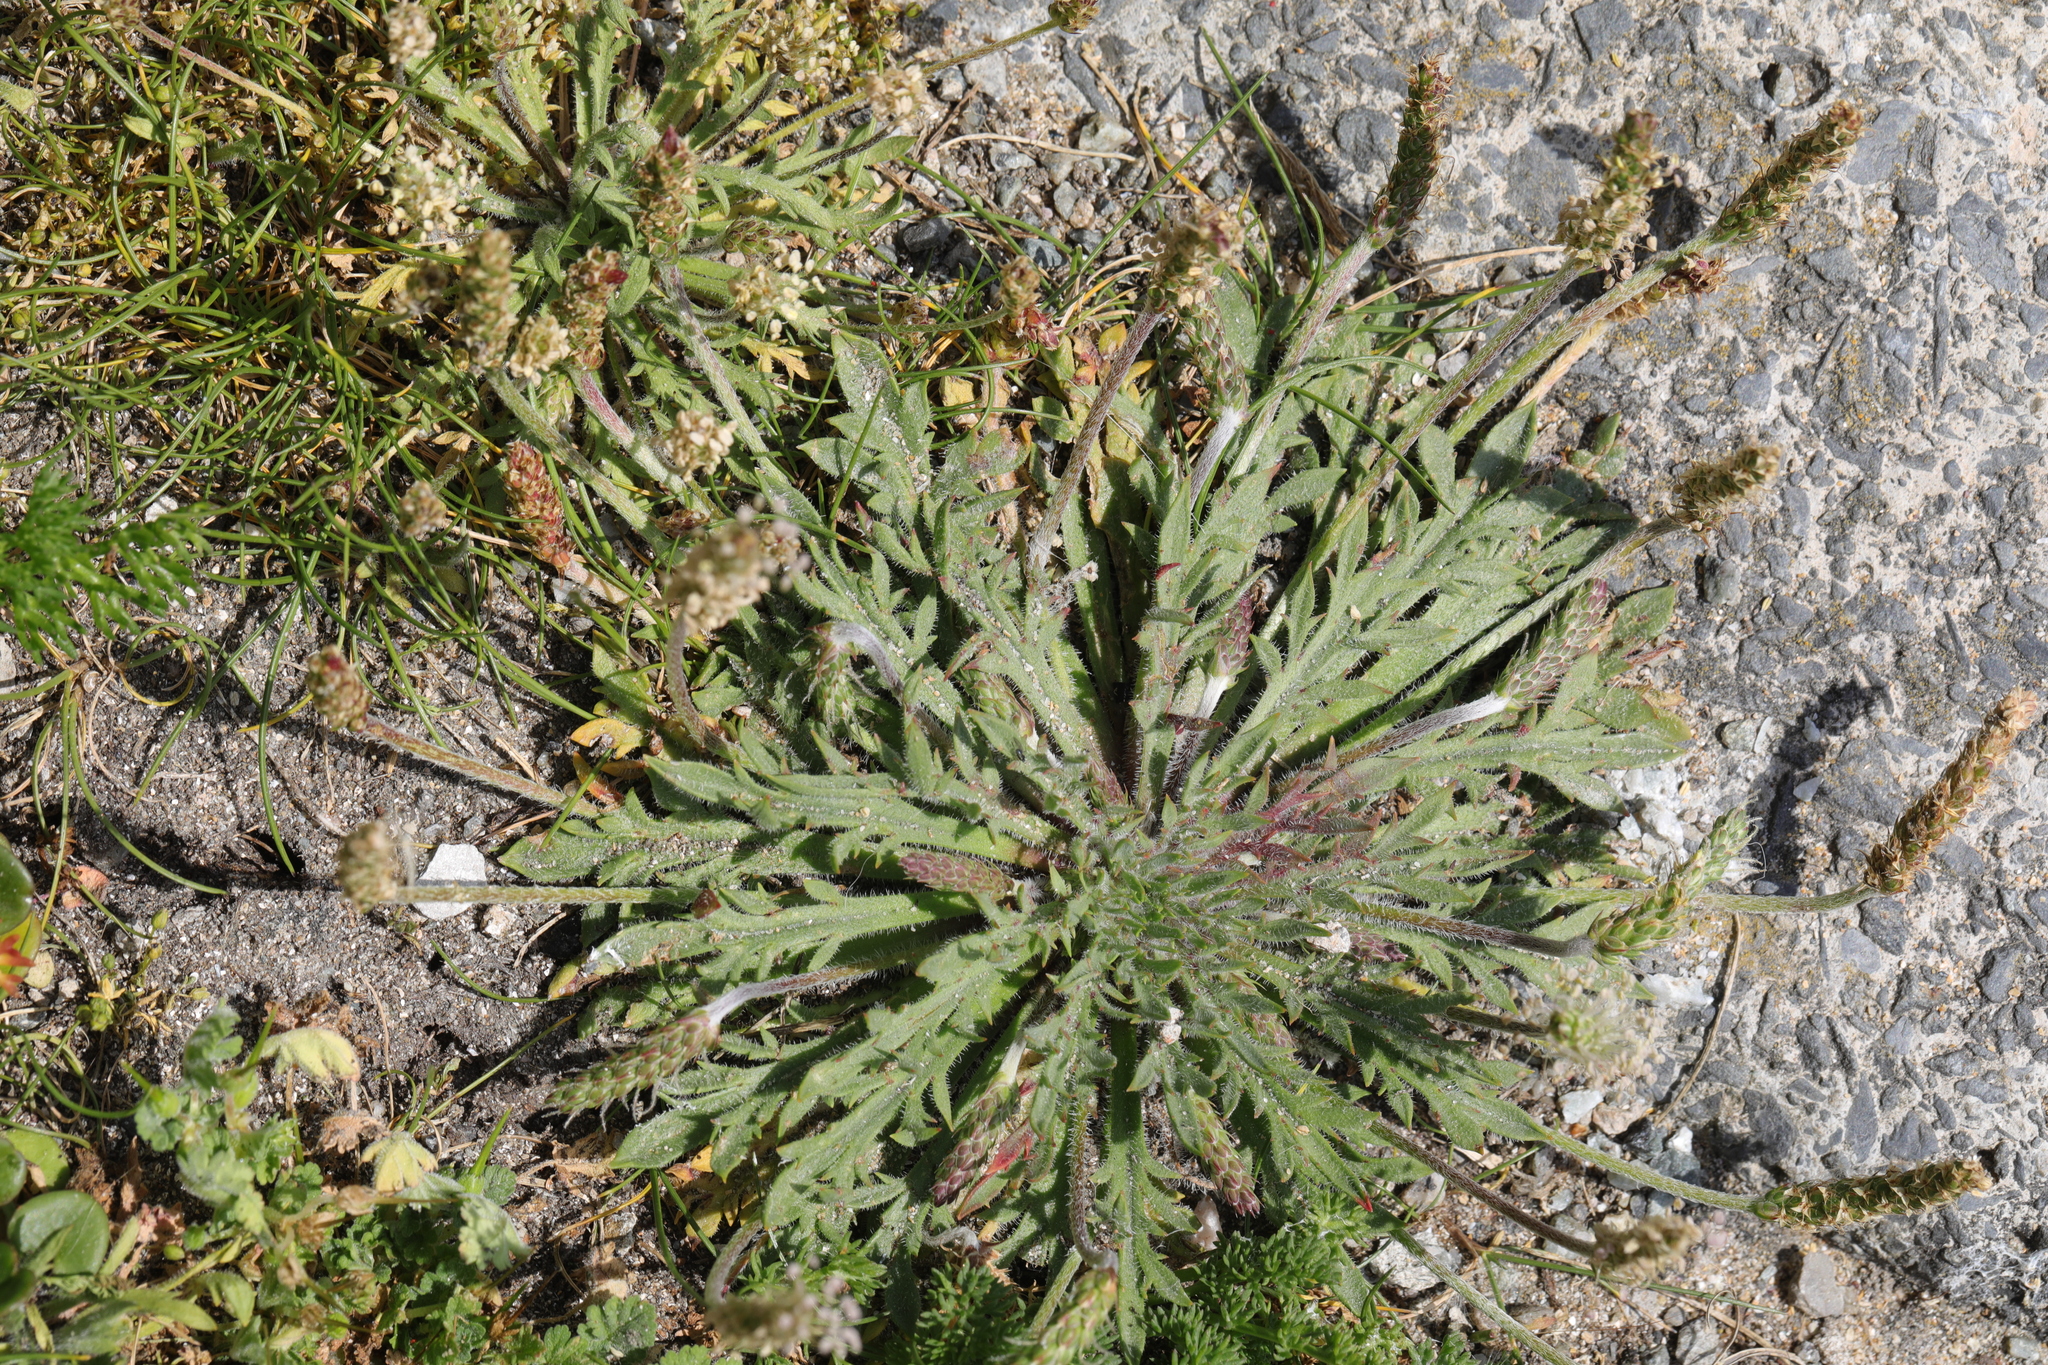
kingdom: Plantae
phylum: Tracheophyta
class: Magnoliopsida
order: Lamiales
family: Plantaginaceae
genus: Plantago
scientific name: Plantago coronopus
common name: Buck's-horn plantain
